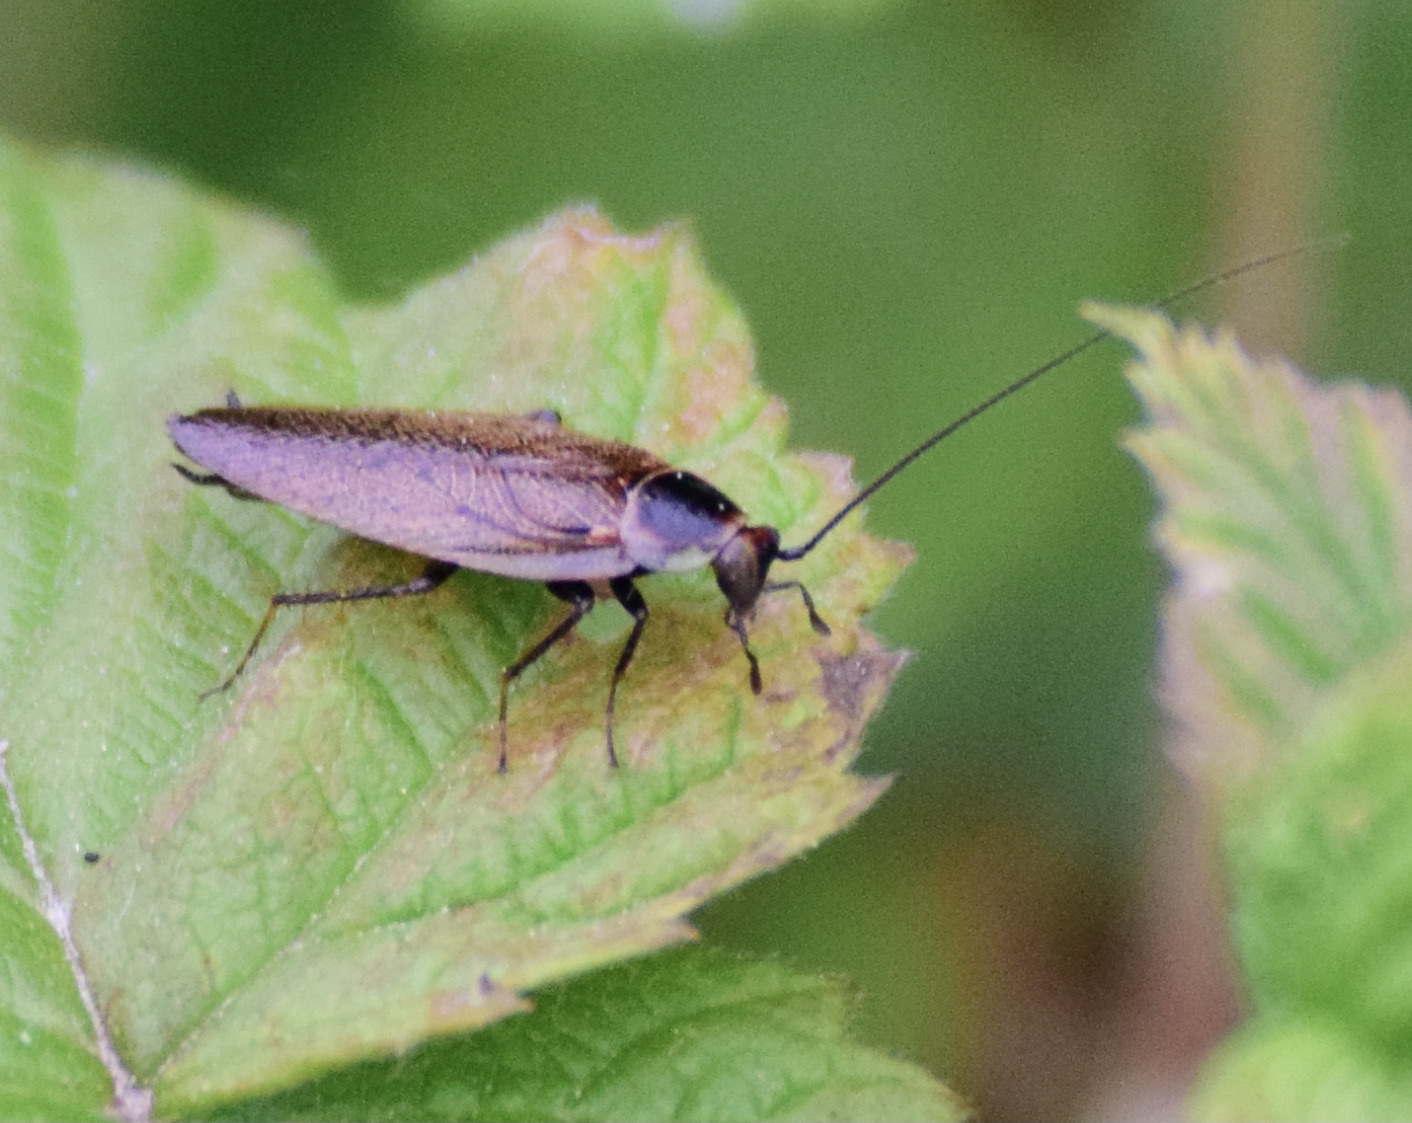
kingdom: Animalia
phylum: Arthropoda
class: Insecta
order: Blattodea
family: Ectobiidae
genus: Ectobius
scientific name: Ectobius lapponicus
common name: Dusky cockroach
